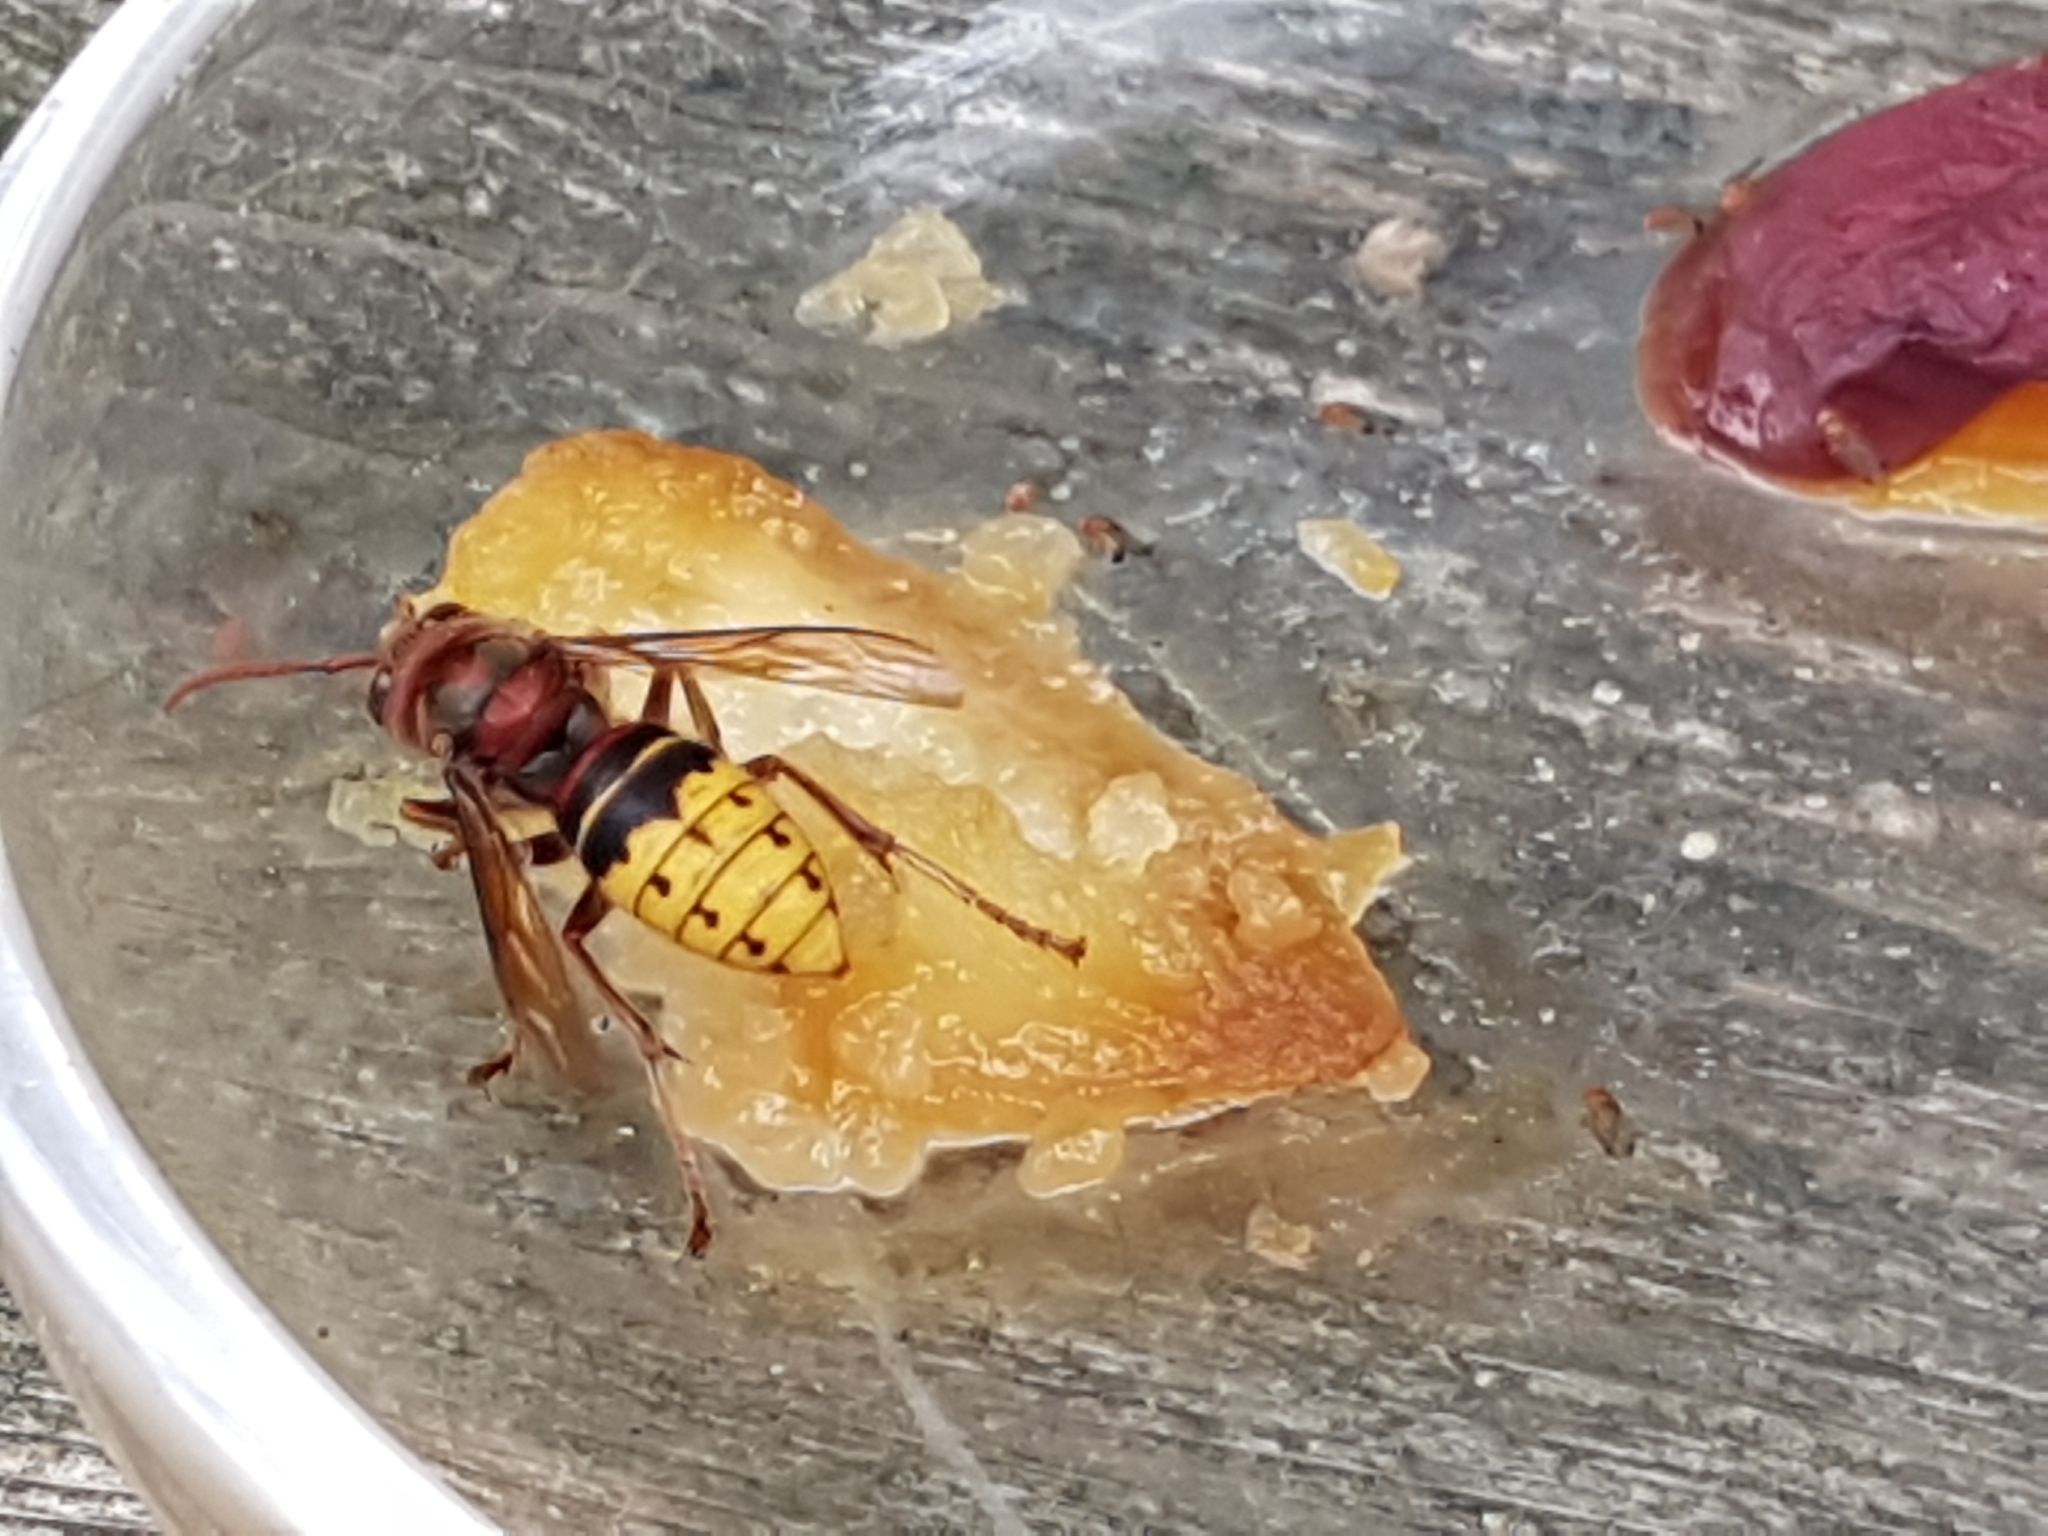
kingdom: Animalia
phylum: Arthropoda
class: Insecta
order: Hymenoptera
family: Vespidae
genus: Vespa
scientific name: Vespa crabro
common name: Hornet
